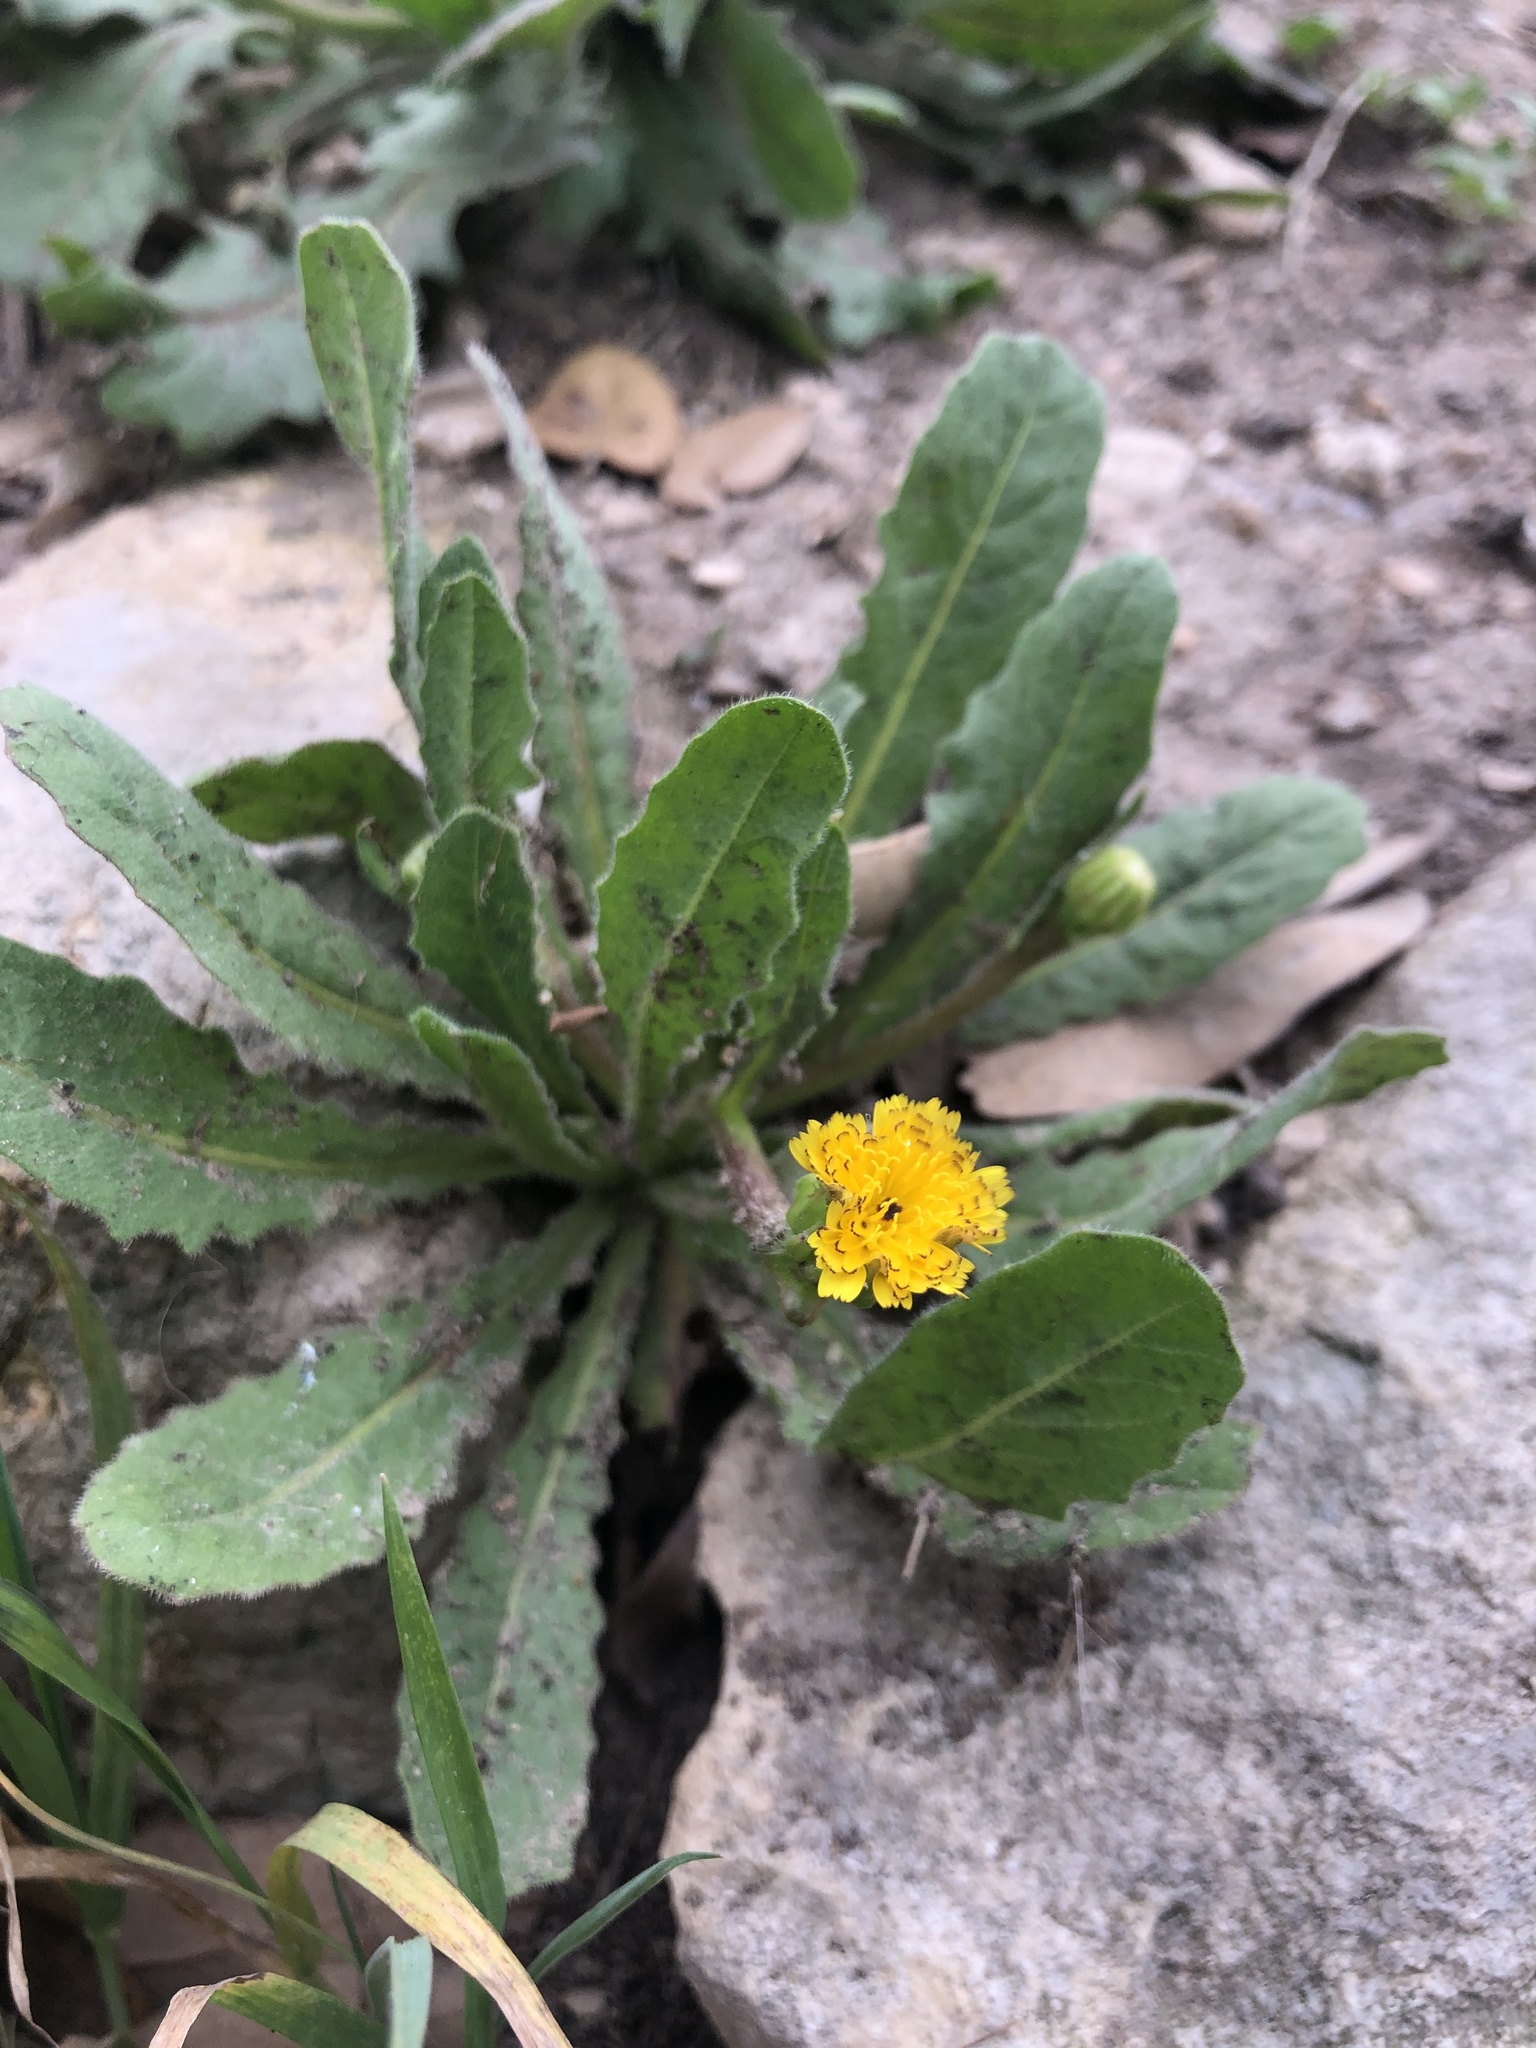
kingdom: Plantae
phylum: Tracheophyta
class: Magnoliopsida
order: Asterales
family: Asteraceae
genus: Hedypnois
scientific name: Hedypnois rhagadioloides
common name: Cretan weed
